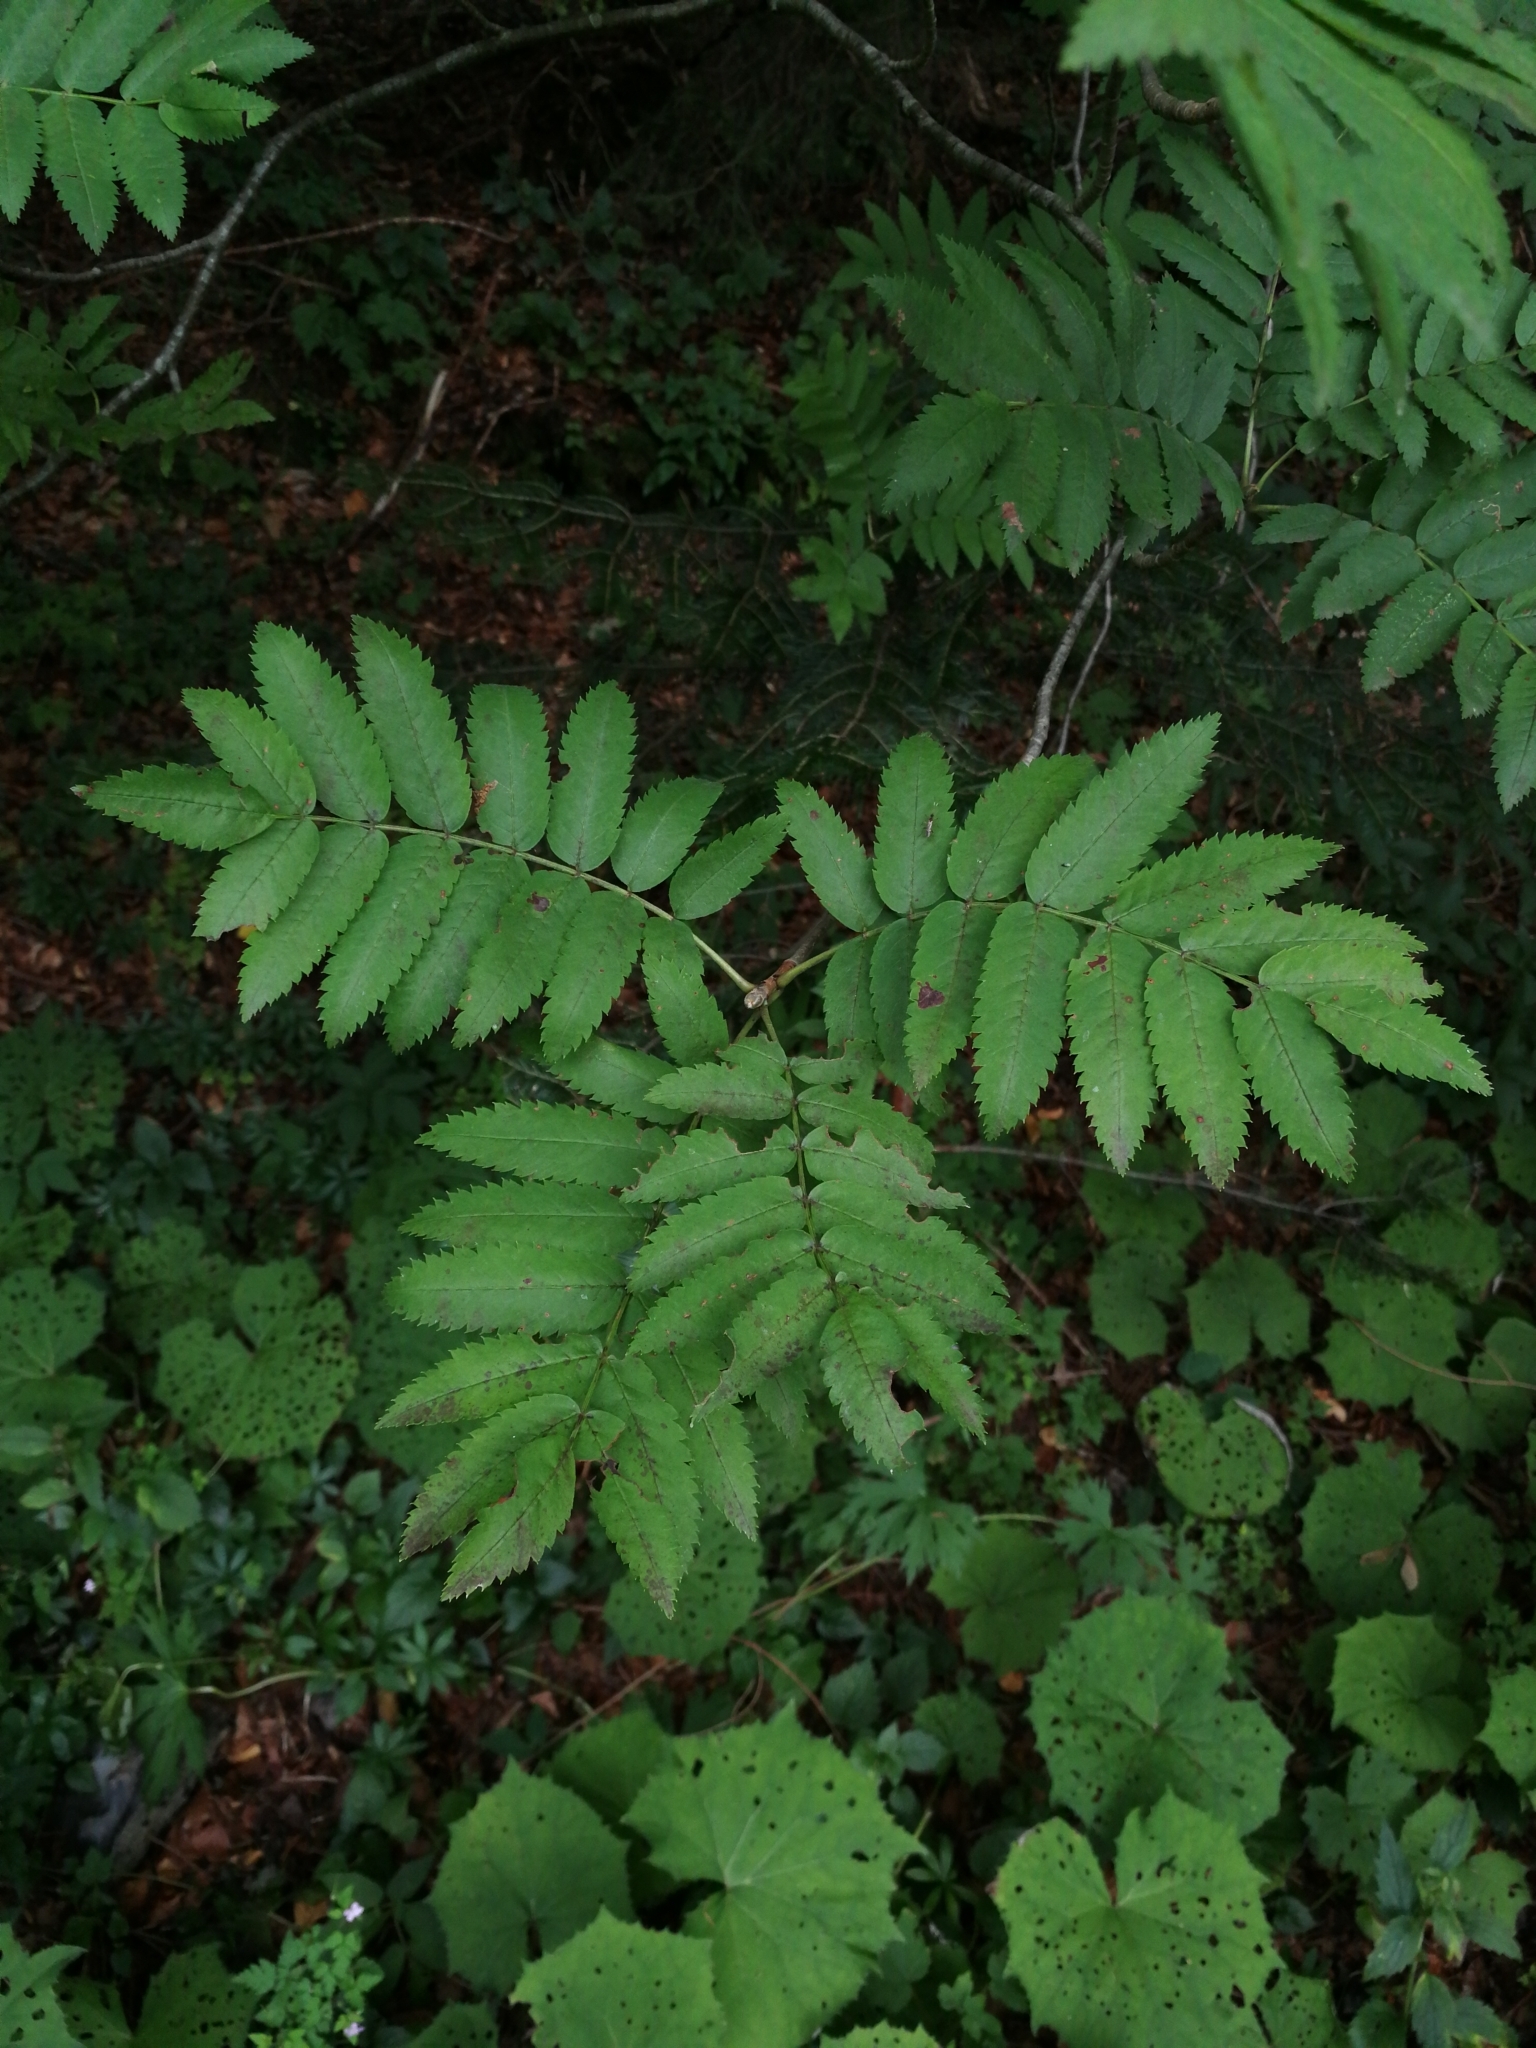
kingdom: Plantae
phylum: Tracheophyta
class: Magnoliopsida
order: Rosales
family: Rosaceae
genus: Sorbus
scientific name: Sorbus aucuparia
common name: Rowan
